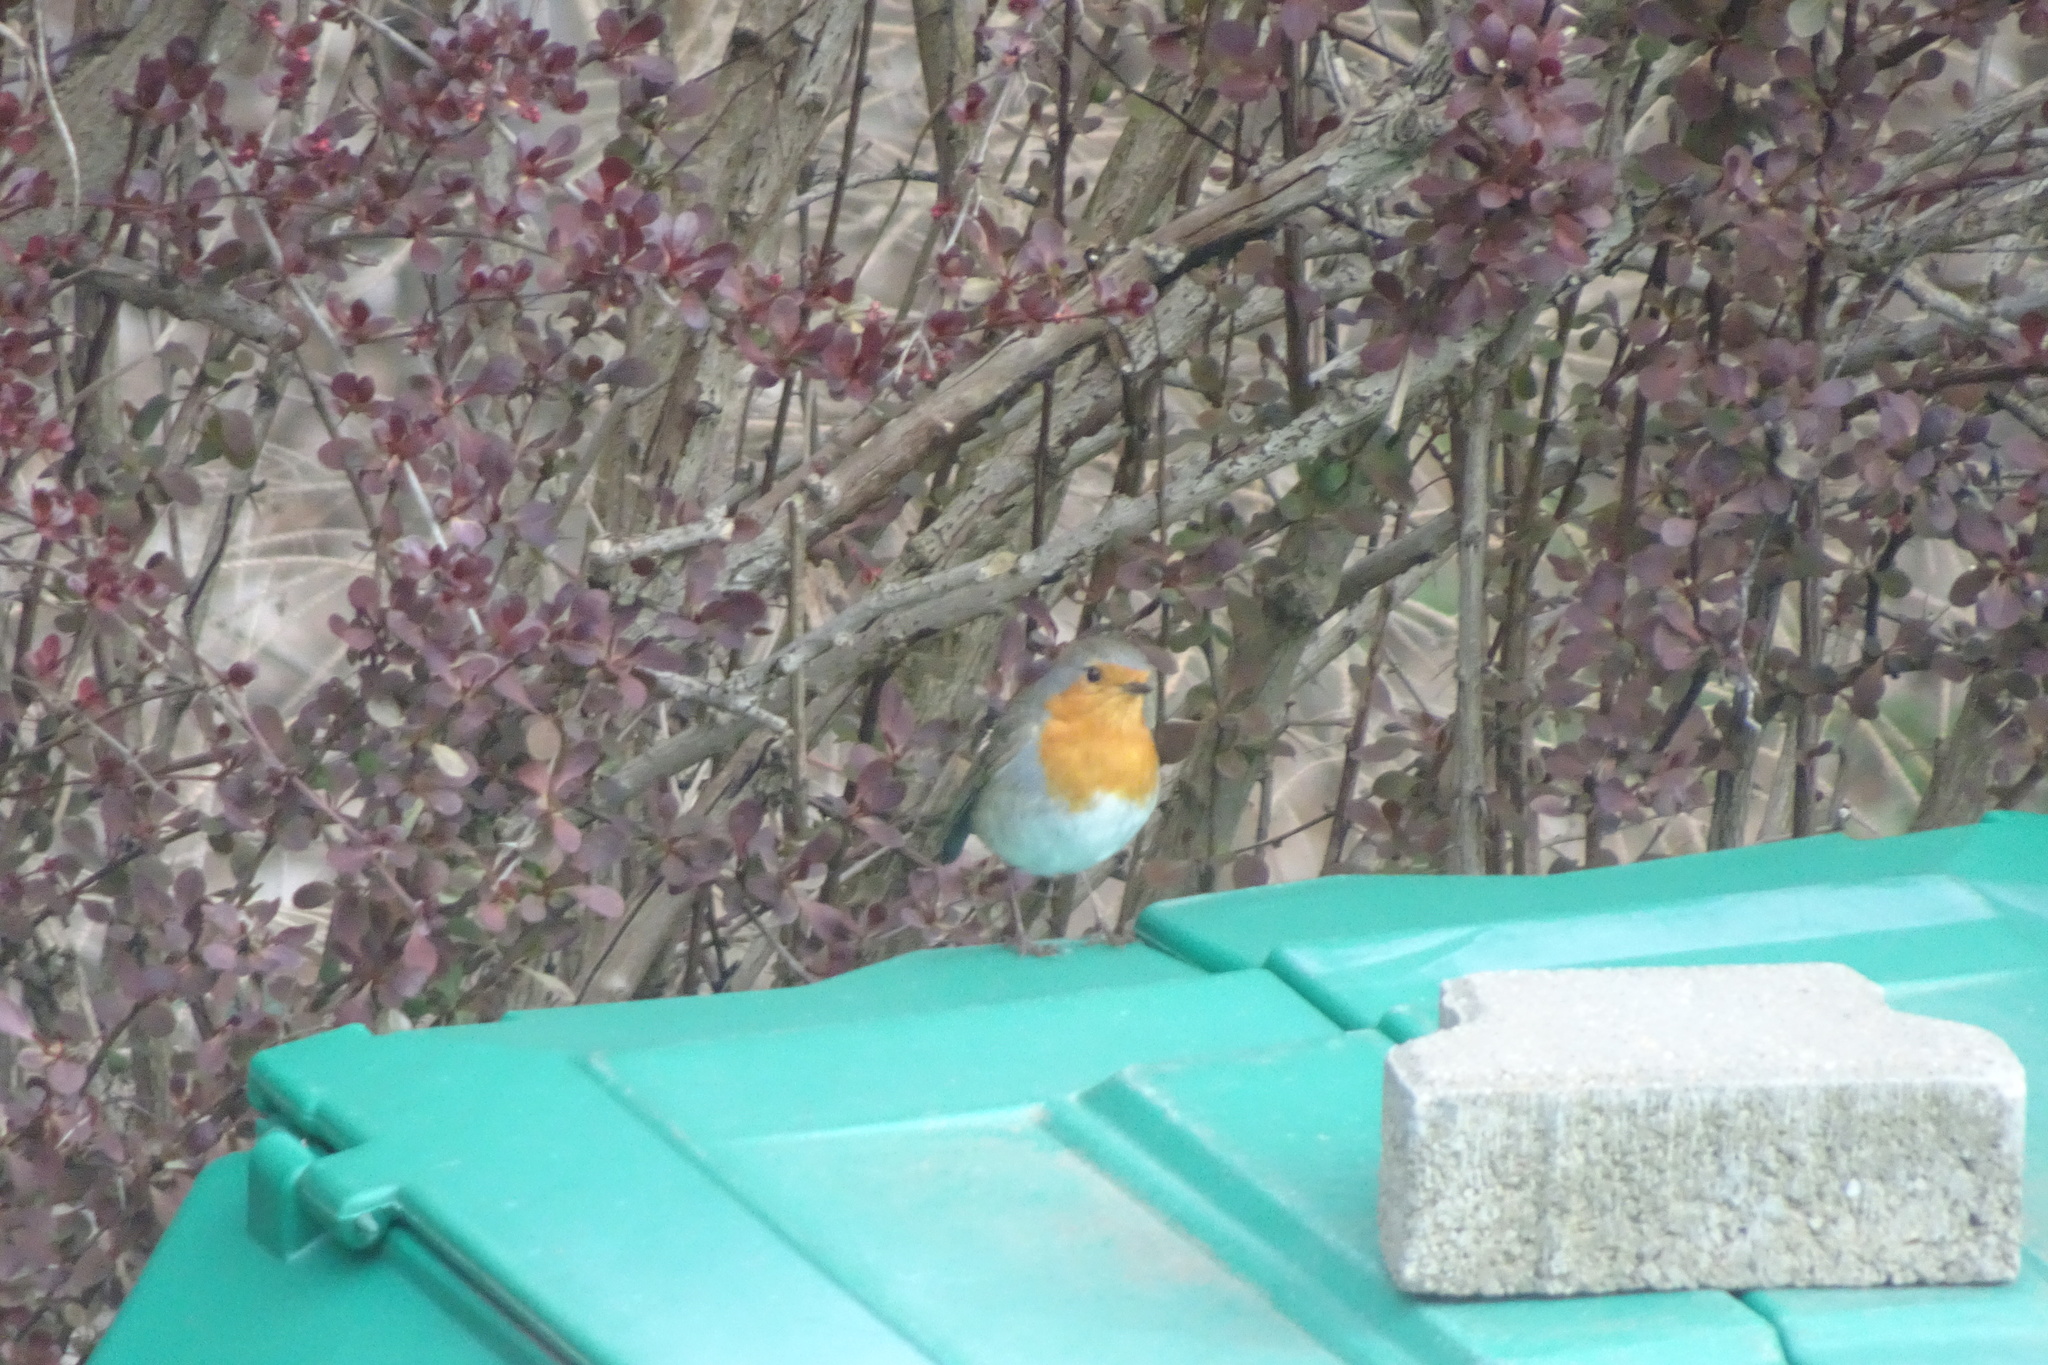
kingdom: Animalia
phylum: Chordata
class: Aves
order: Passeriformes
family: Muscicapidae
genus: Erithacus
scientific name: Erithacus rubecula
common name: European robin
